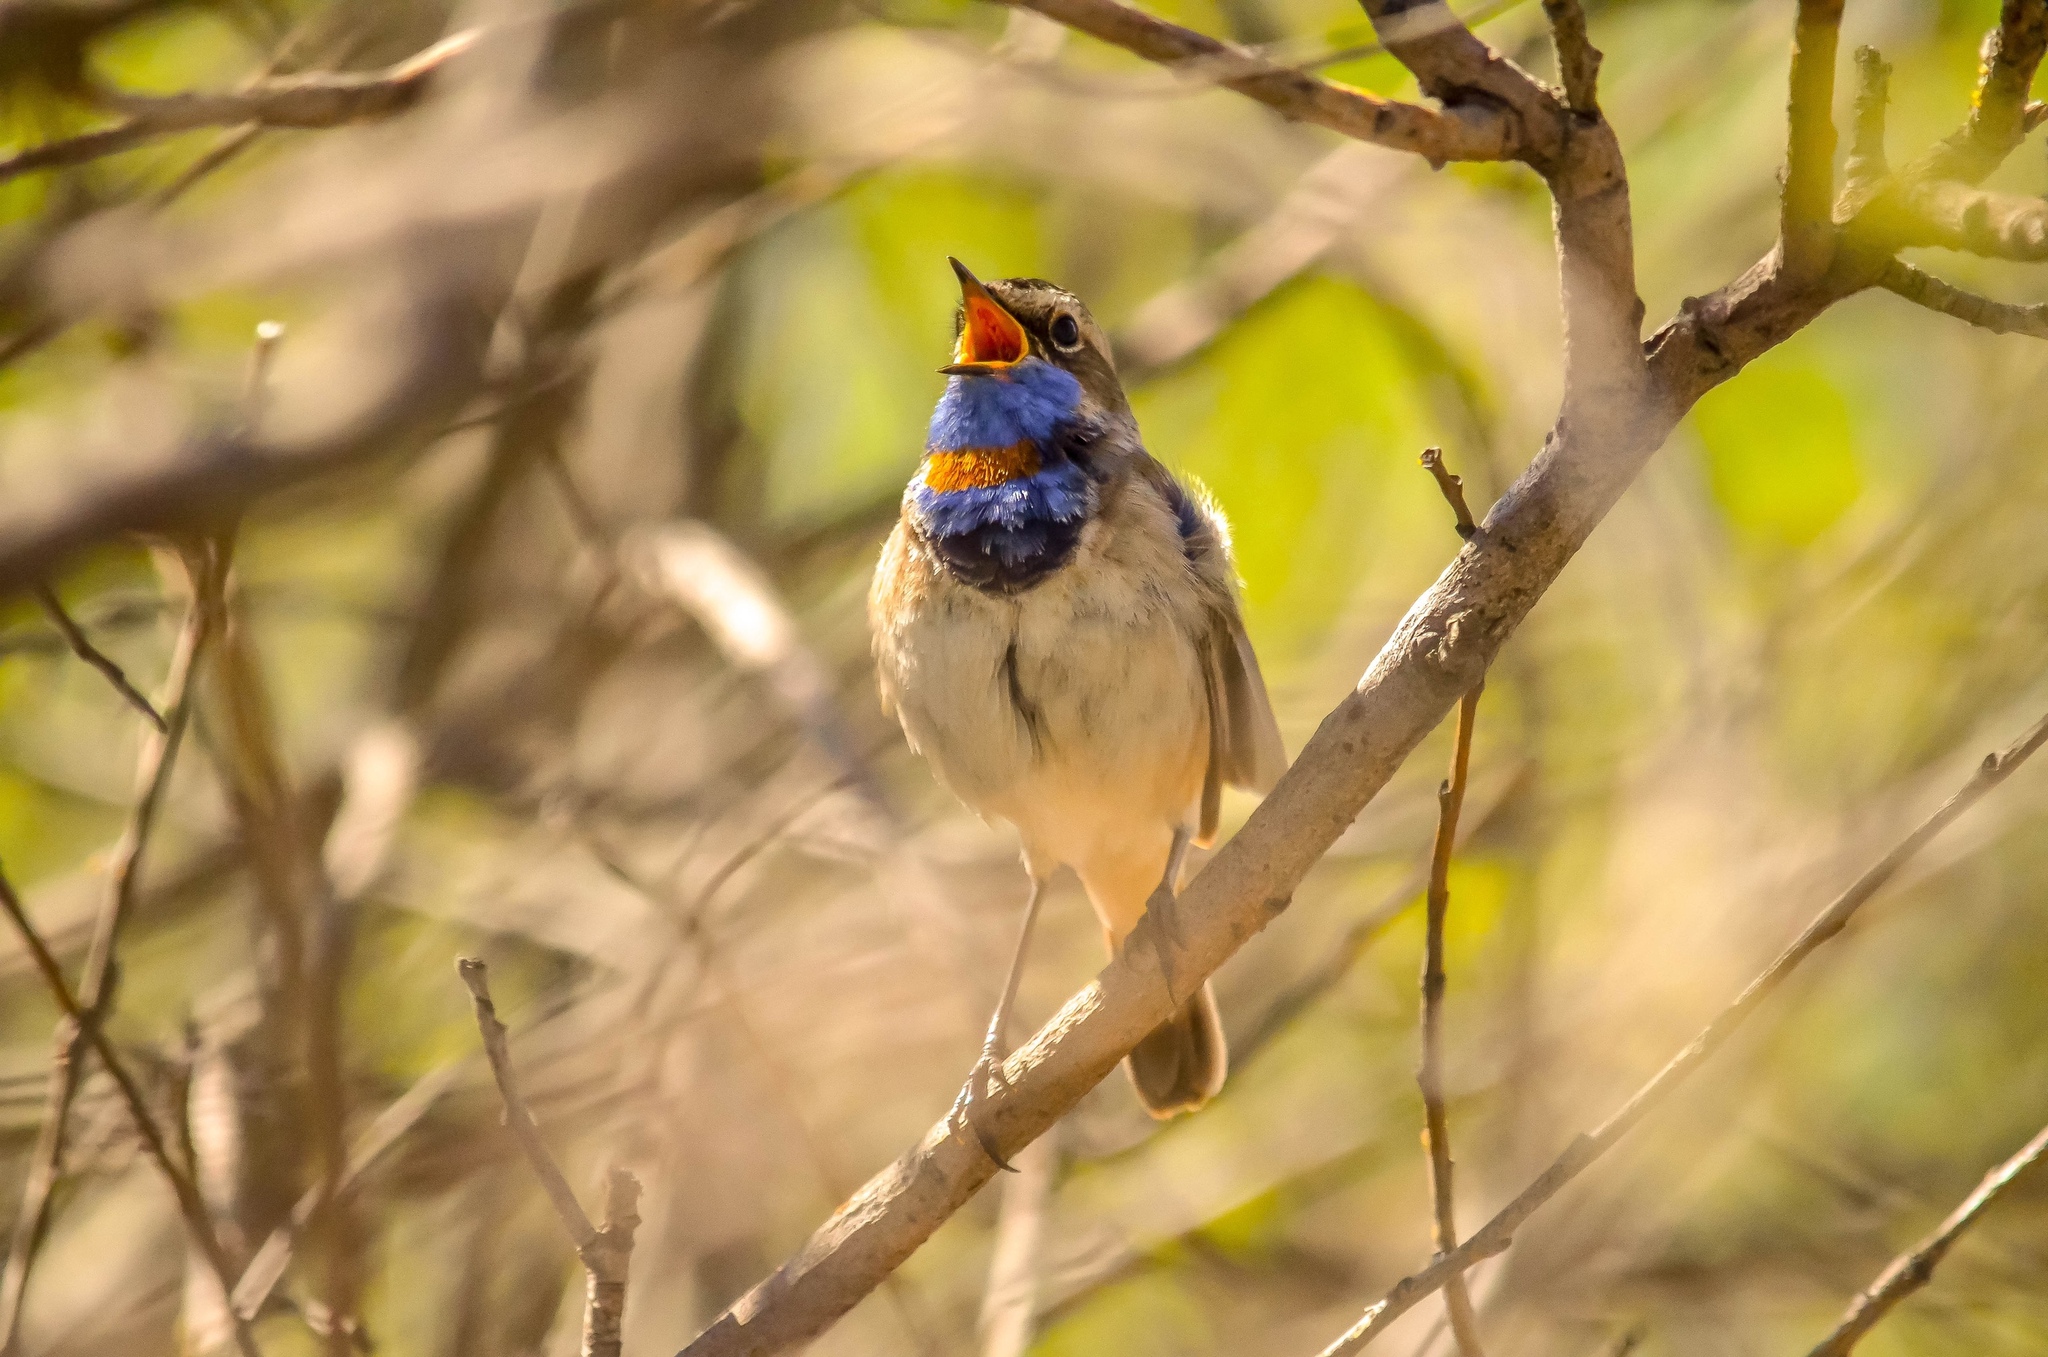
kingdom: Animalia
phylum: Chordata
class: Aves
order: Passeriformes
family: Muscicapidae
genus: Luscinia
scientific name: Luscinia svecica
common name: Bluethroat
